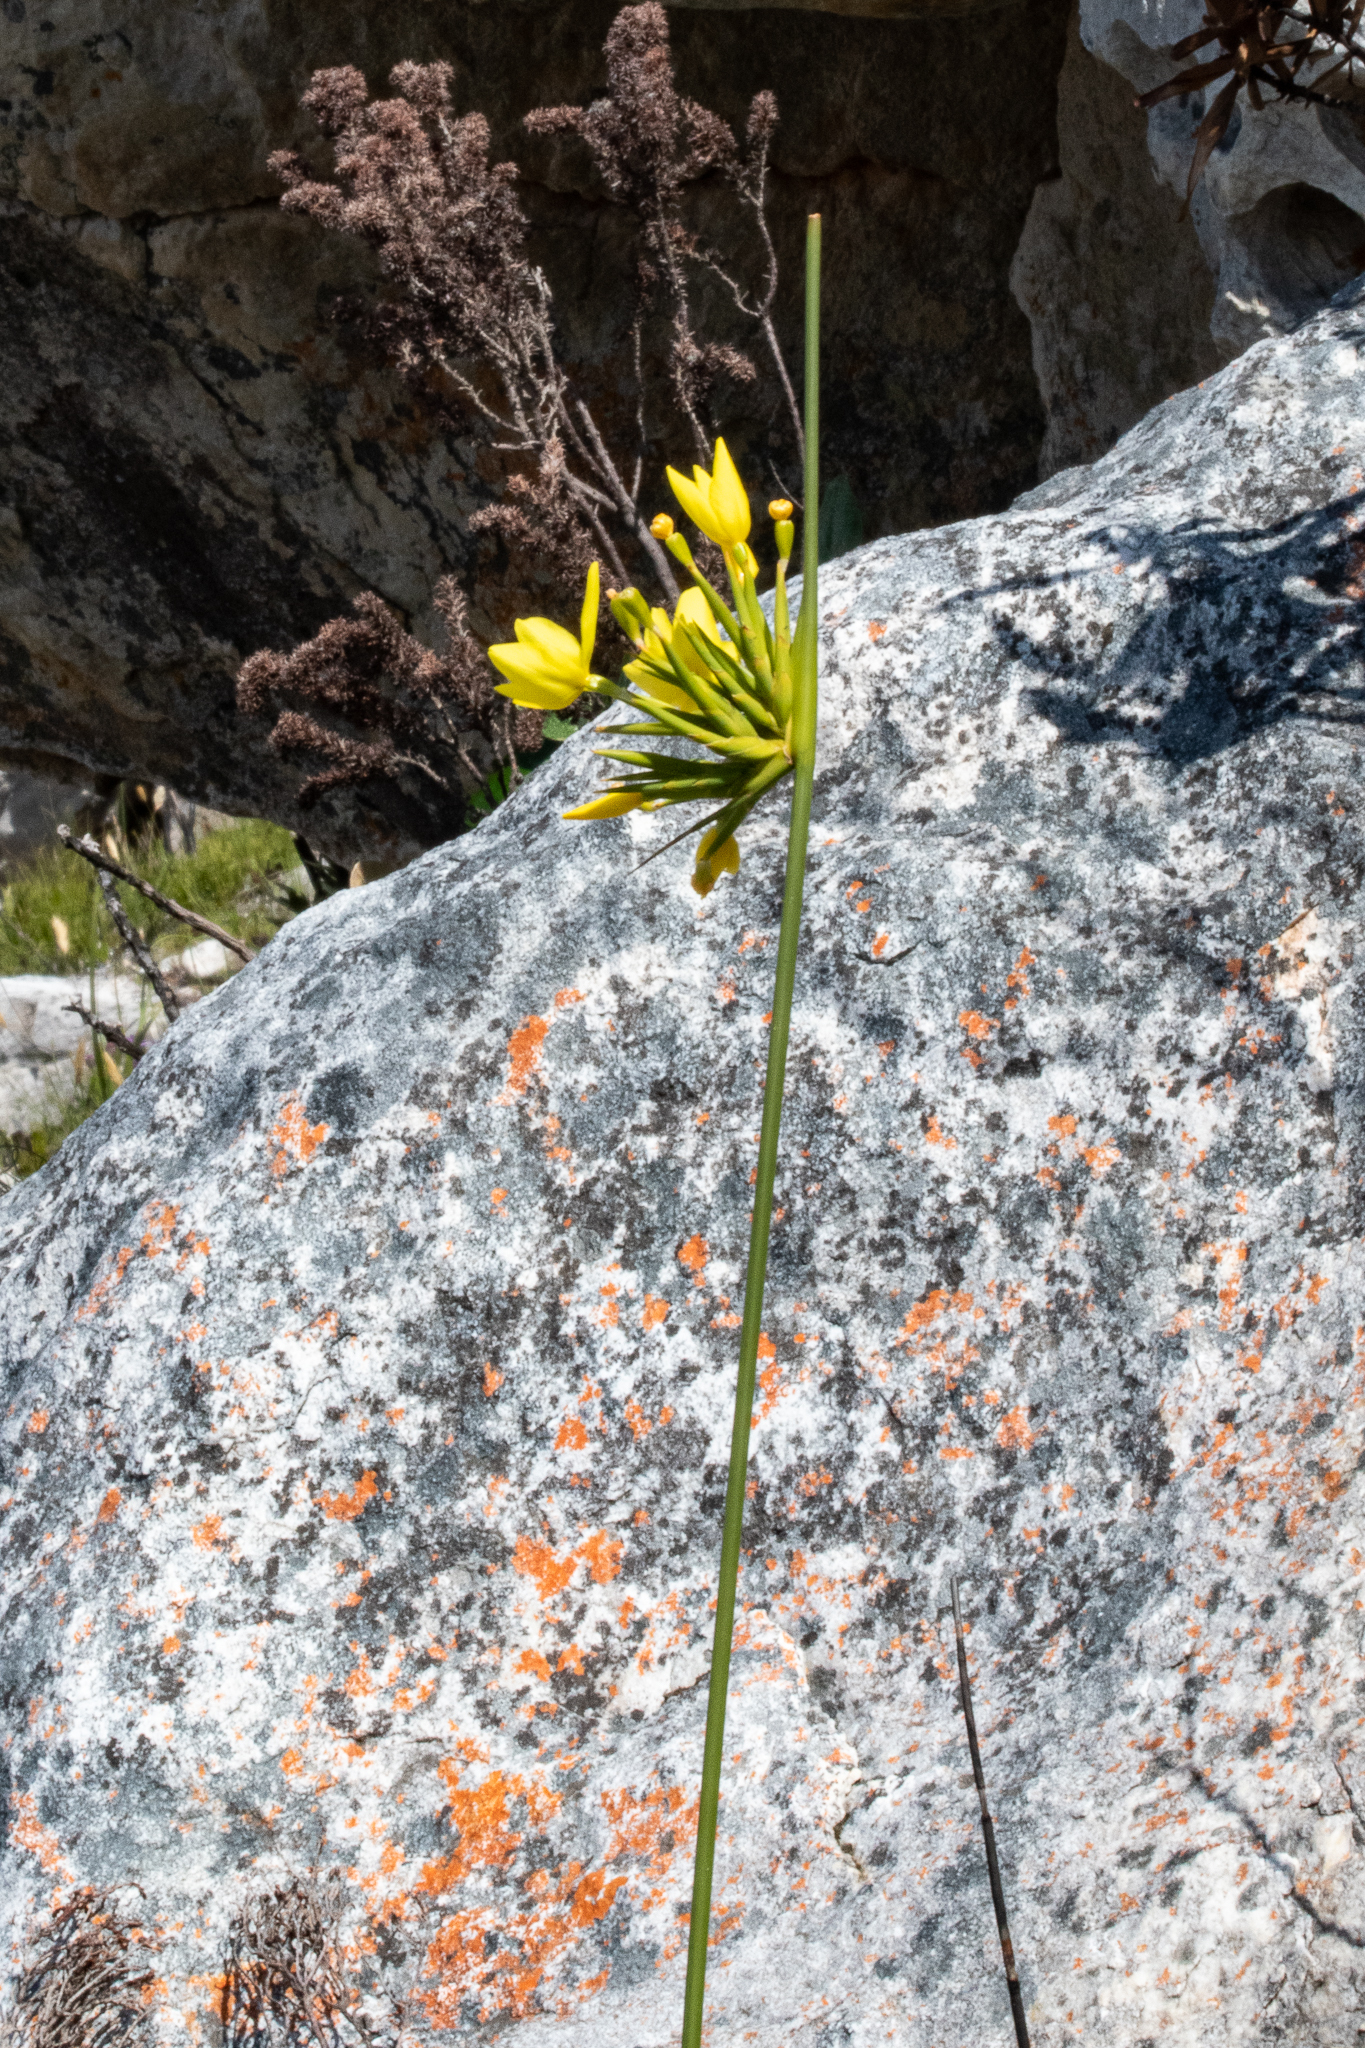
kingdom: Plantae
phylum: Tracheophyta
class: Liliopsida
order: Asparagales
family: Iridaceae
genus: Bobartia
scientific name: Bobartia indica
